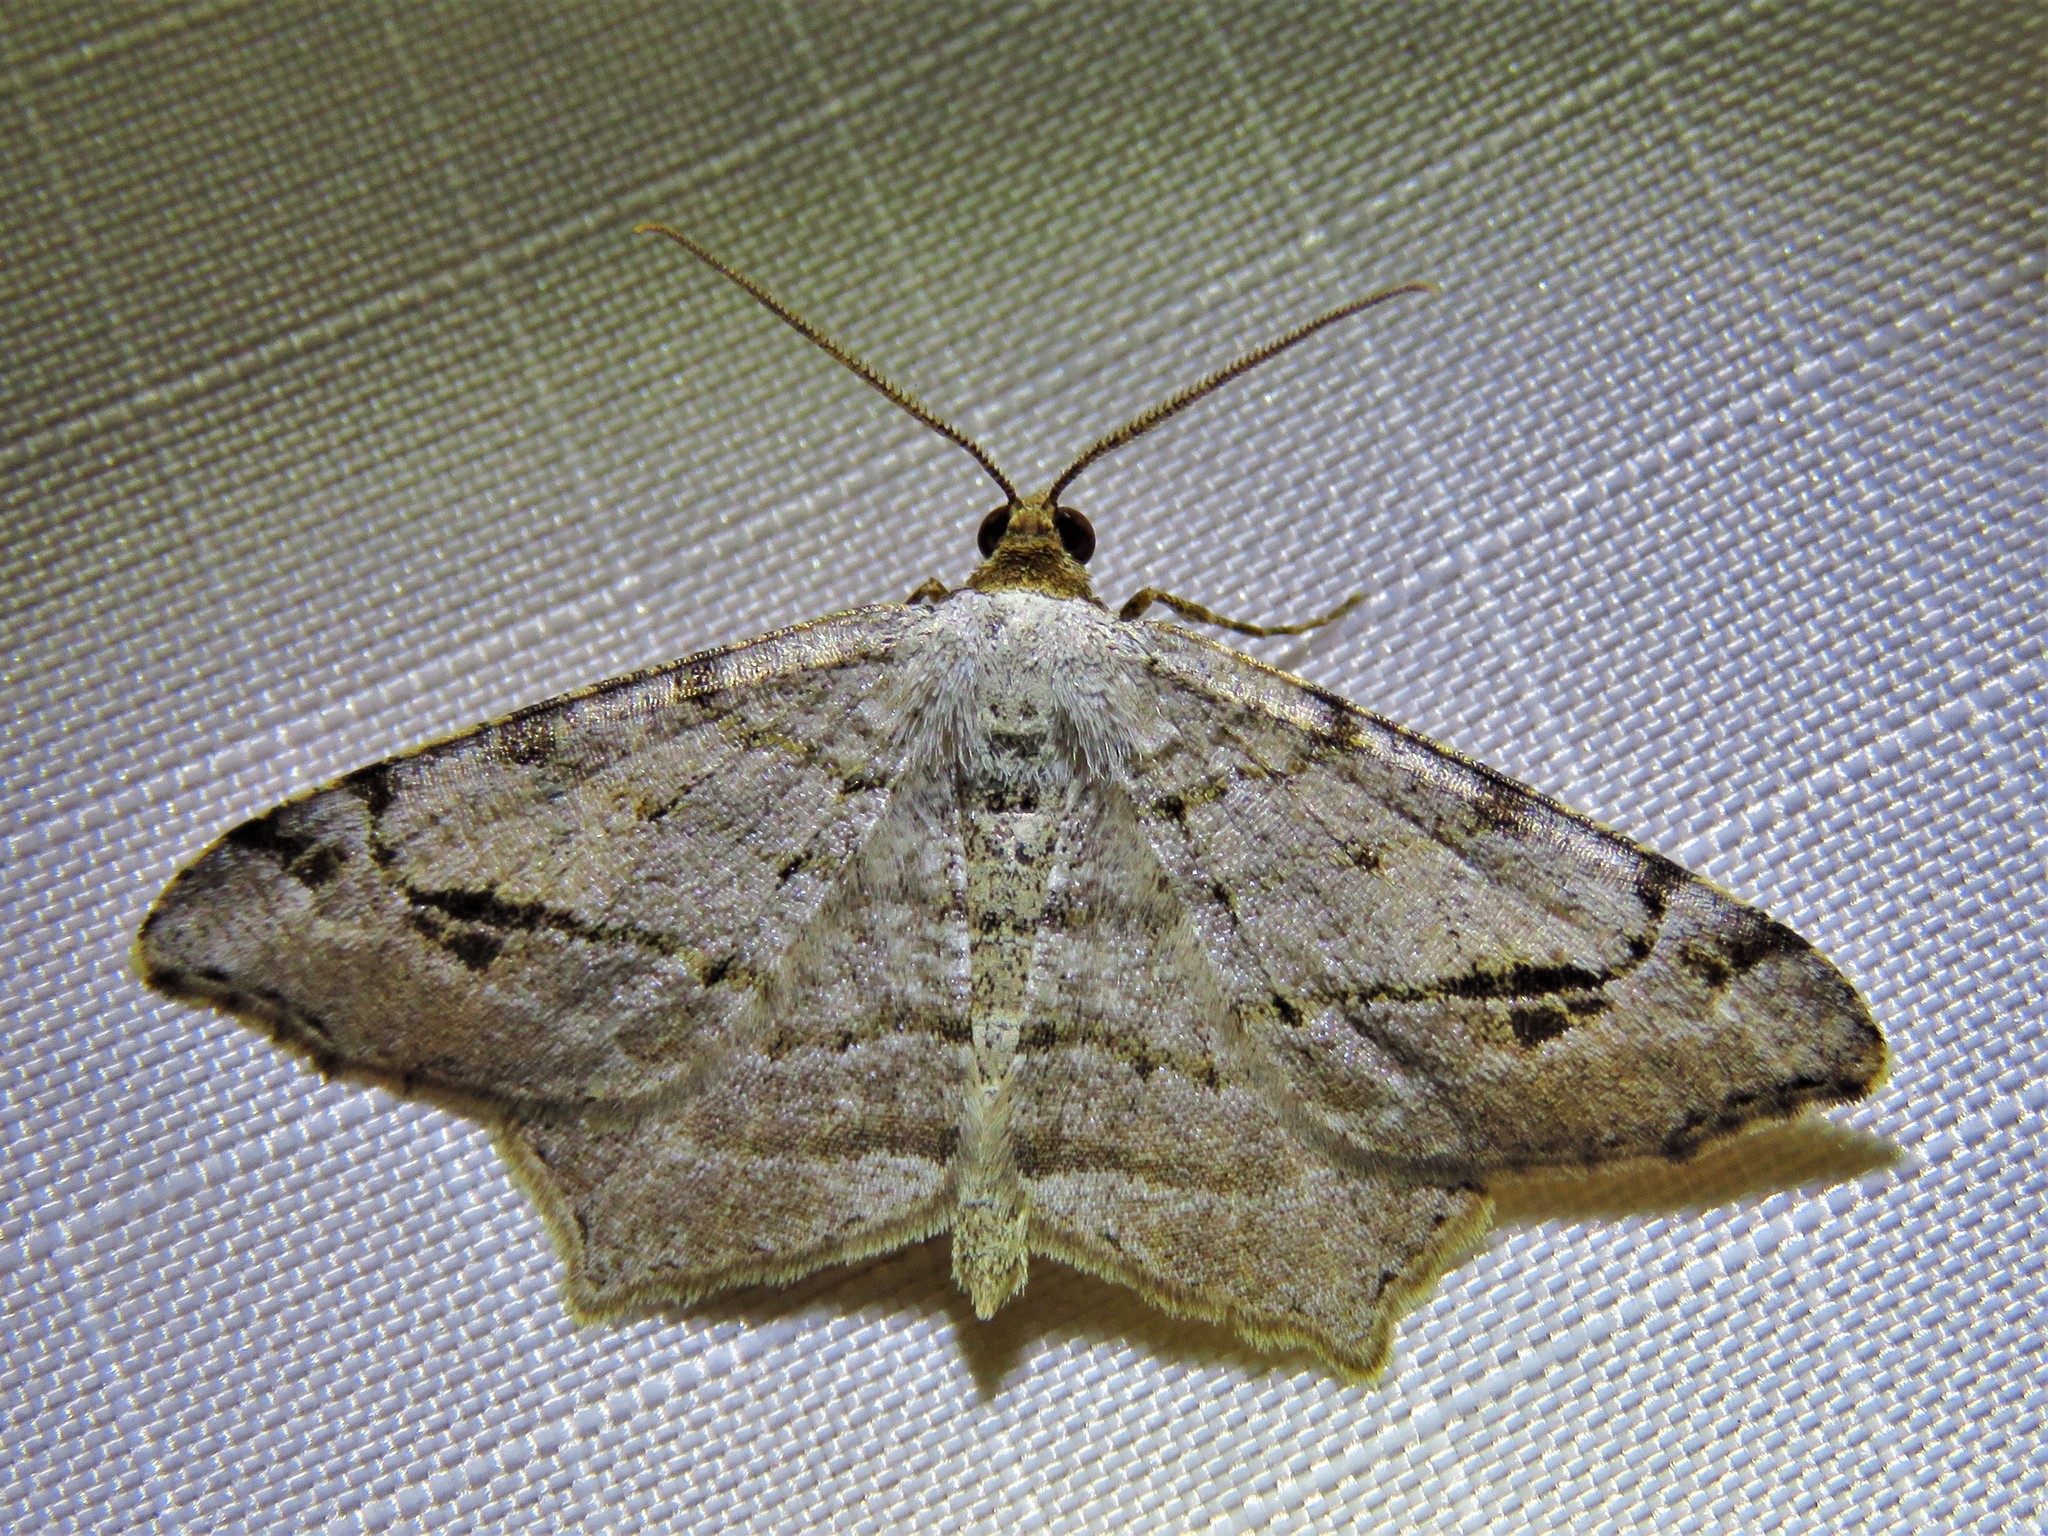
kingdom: Animalia
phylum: Arthropoda
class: Insecta
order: Lepidoptera
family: Geometridae
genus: Macaria
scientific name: Macaria aequiferaria
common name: Common angle
